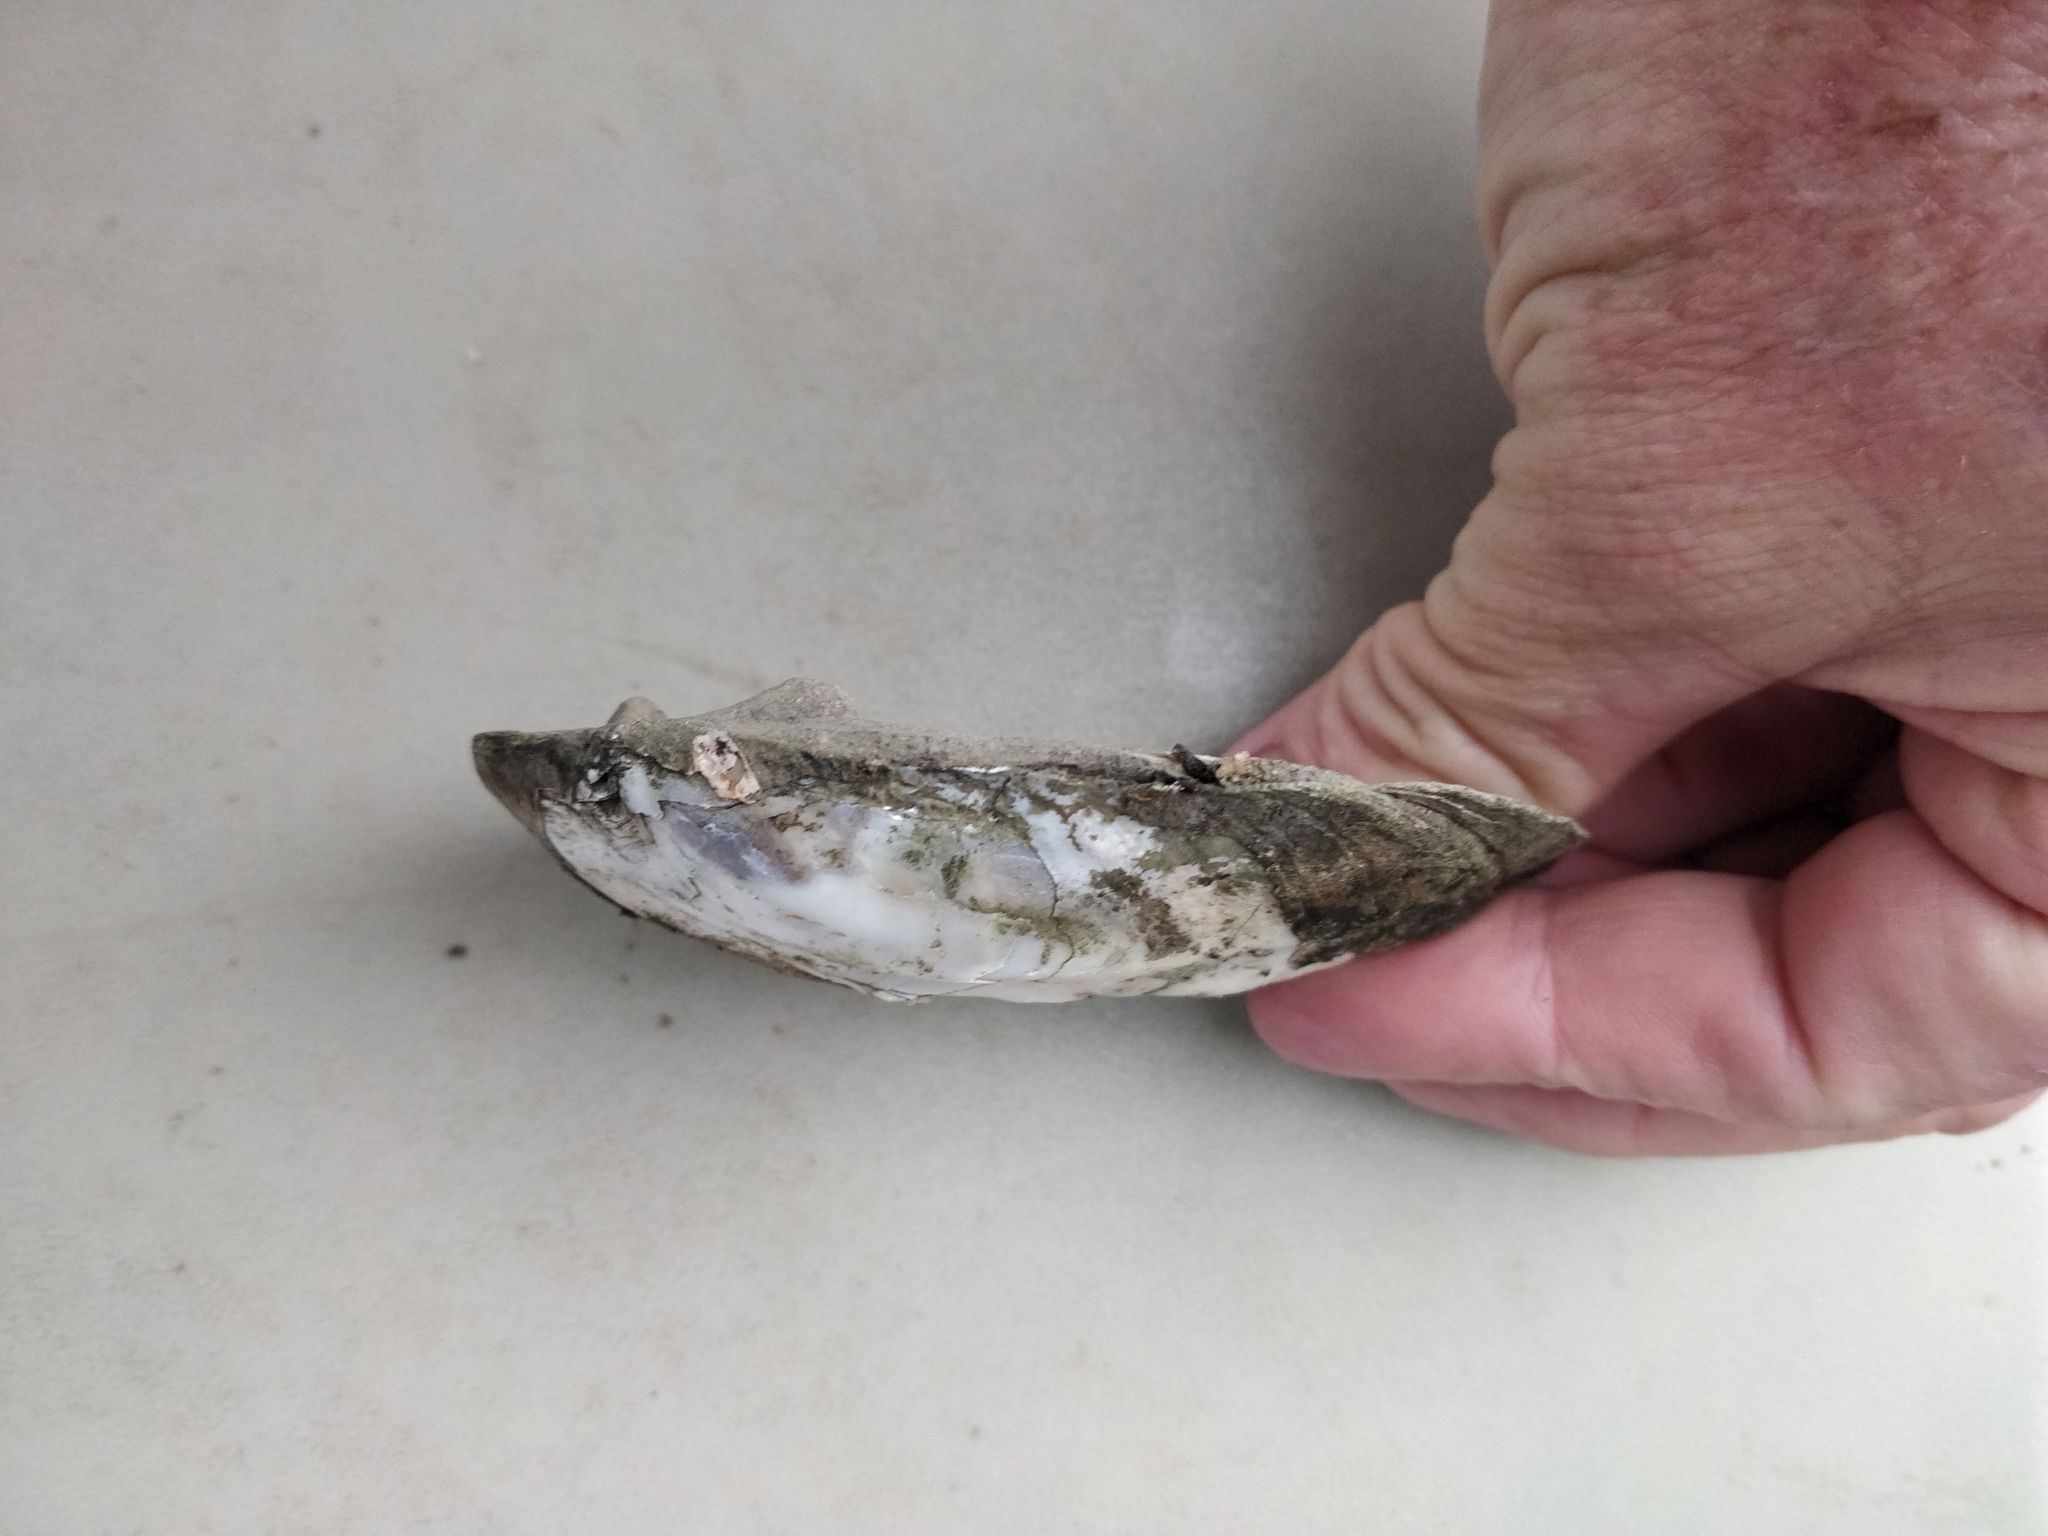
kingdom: Animalia
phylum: Mollusca
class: Bivalvia
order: Unionida
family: Unionidae
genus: Amblema
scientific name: Amblema plicata
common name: Threeridge
